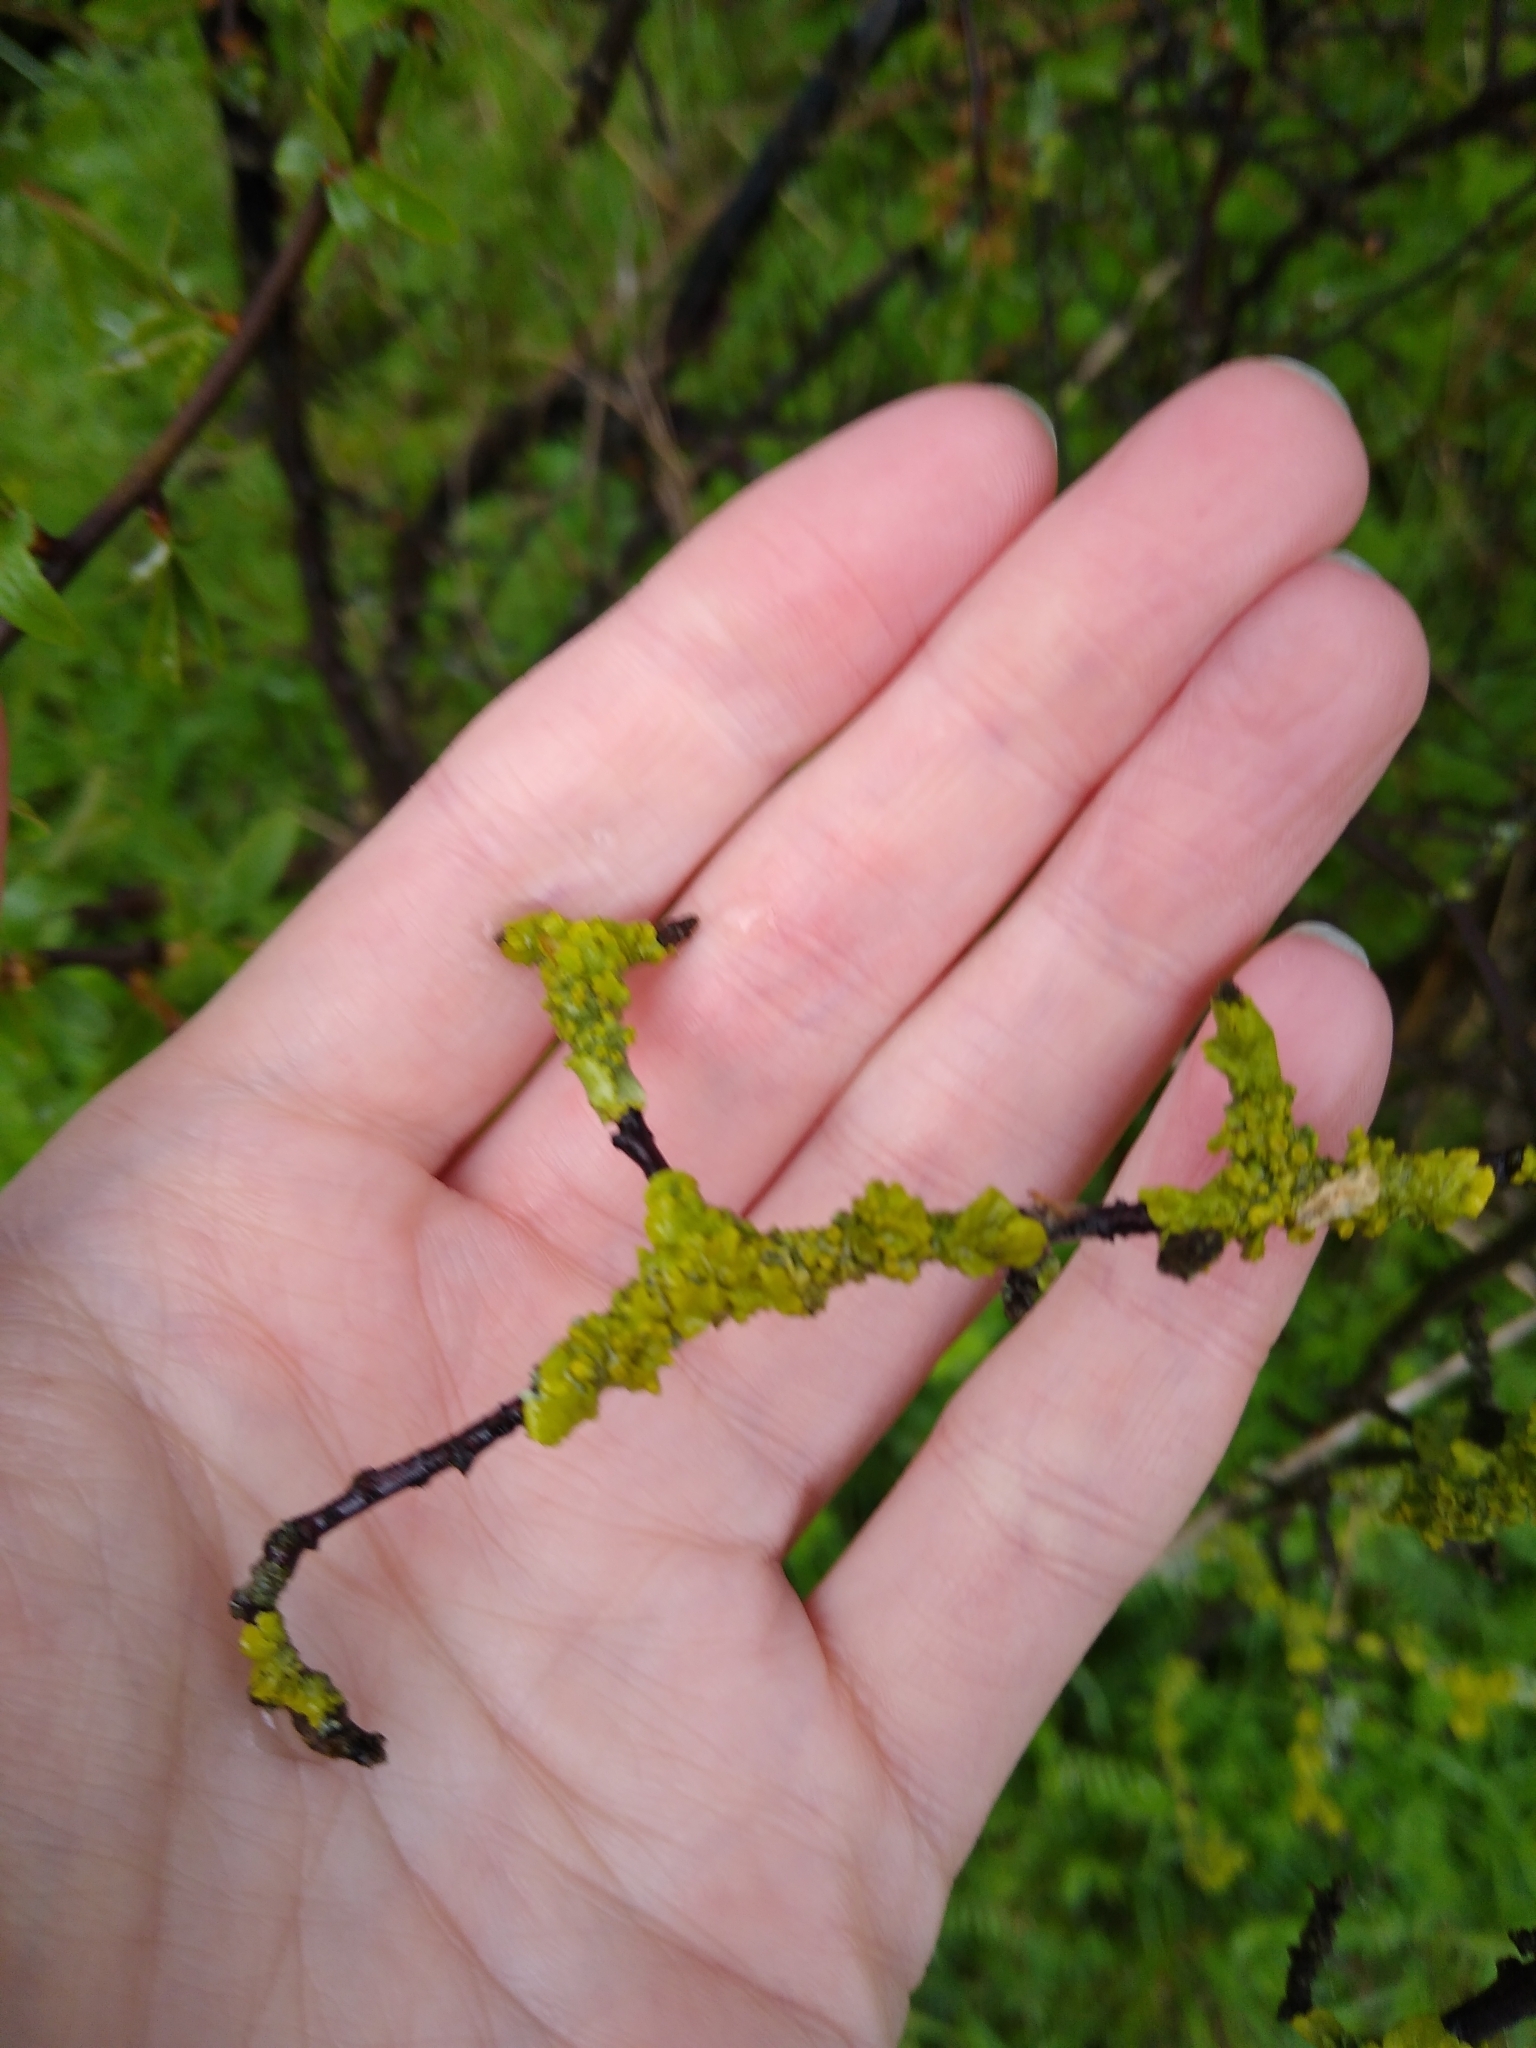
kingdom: Fungi
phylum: Ascomycota
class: Lecanoromycetes
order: Teloschistales
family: Teloschistaceae
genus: Xanthoria
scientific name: Xanthoria parietina
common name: Common orange lichen
